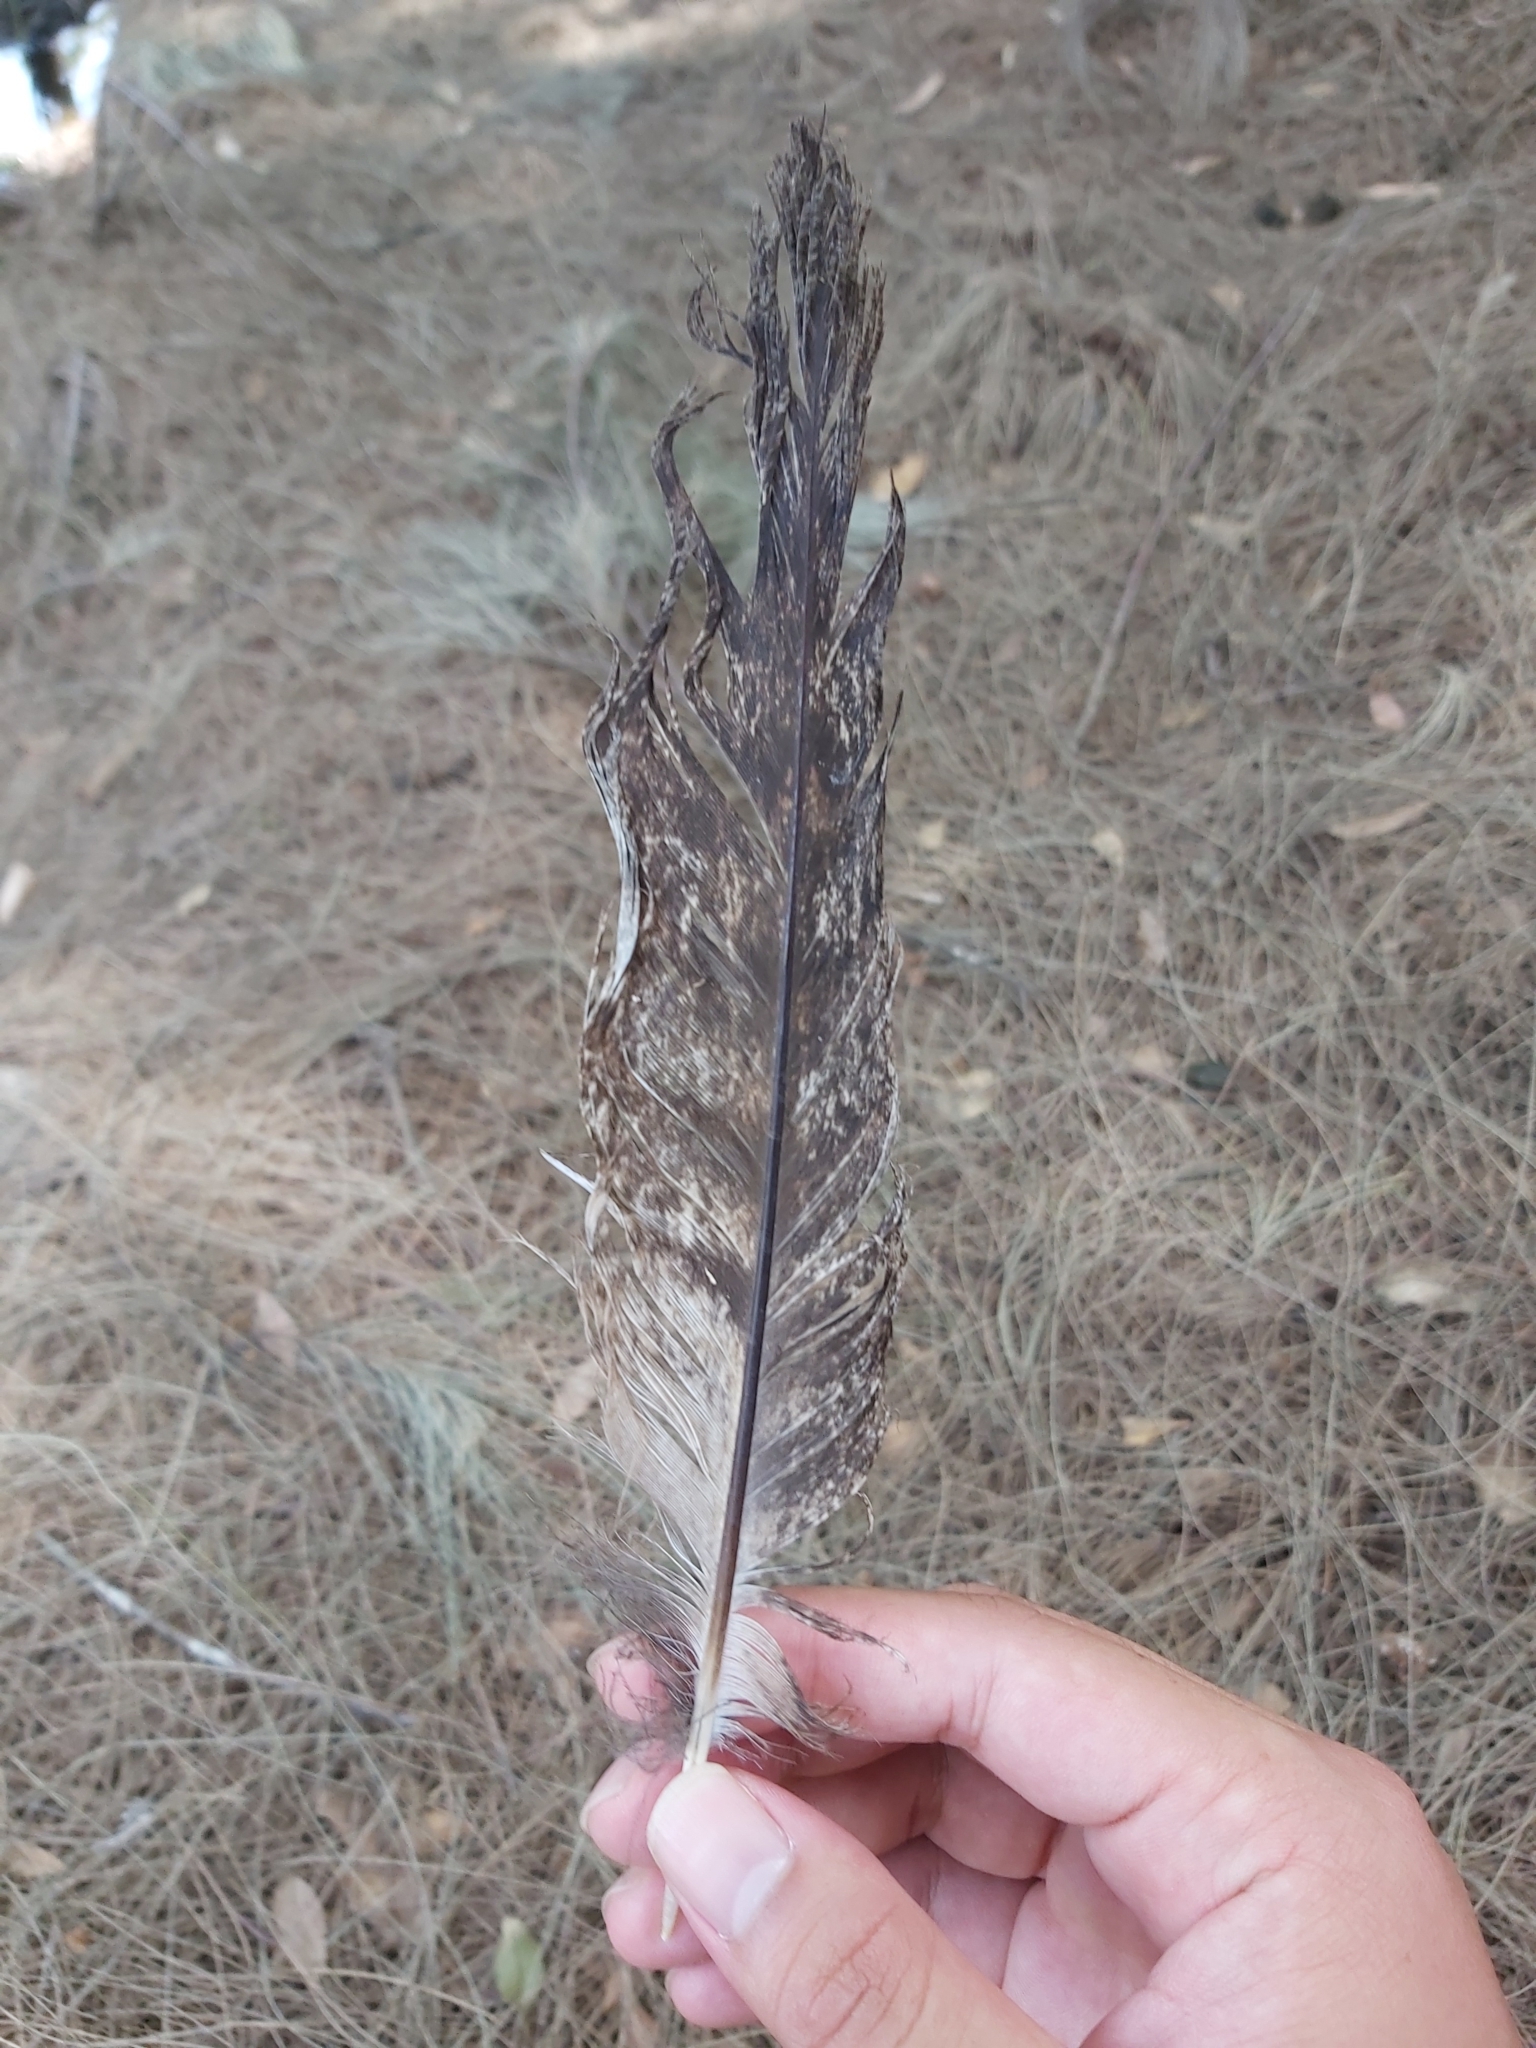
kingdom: Animalia
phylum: Chordata
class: Aves
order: Caprimulgiformes
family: Podargidae
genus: Podargus
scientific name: Podargus strigoides
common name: Tawny frogmouth
